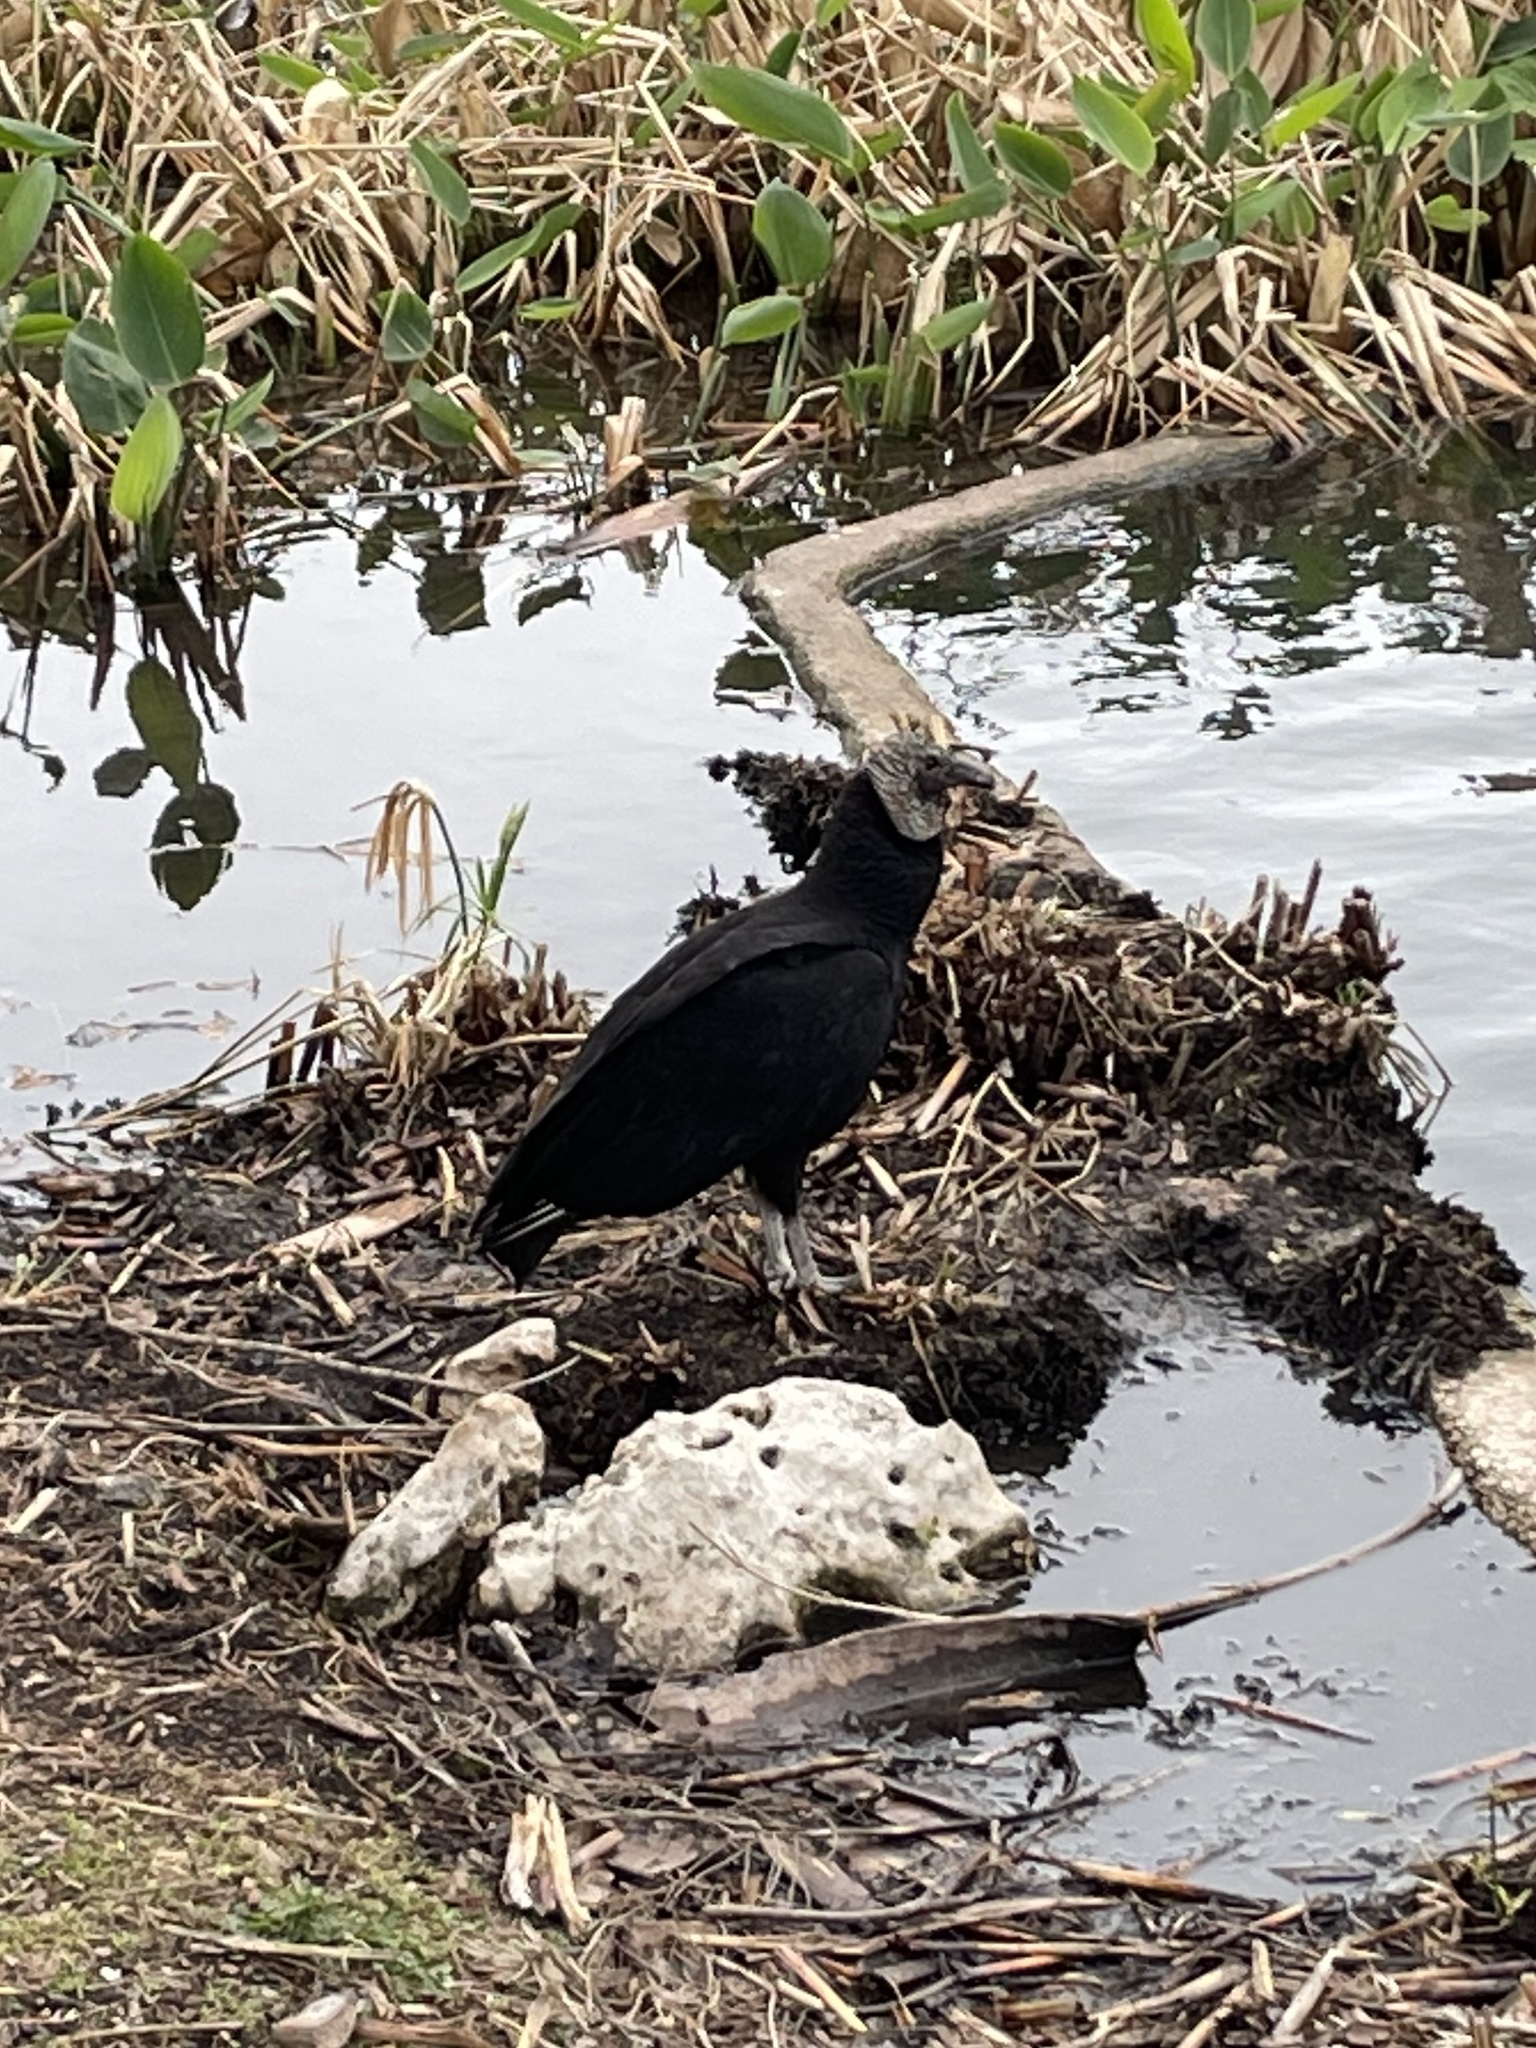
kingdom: Animalia
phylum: Chordata
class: Aves
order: Accipitriformes
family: Cathartidae
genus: Coragyps
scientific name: Coragyps atratus
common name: Black vulture
